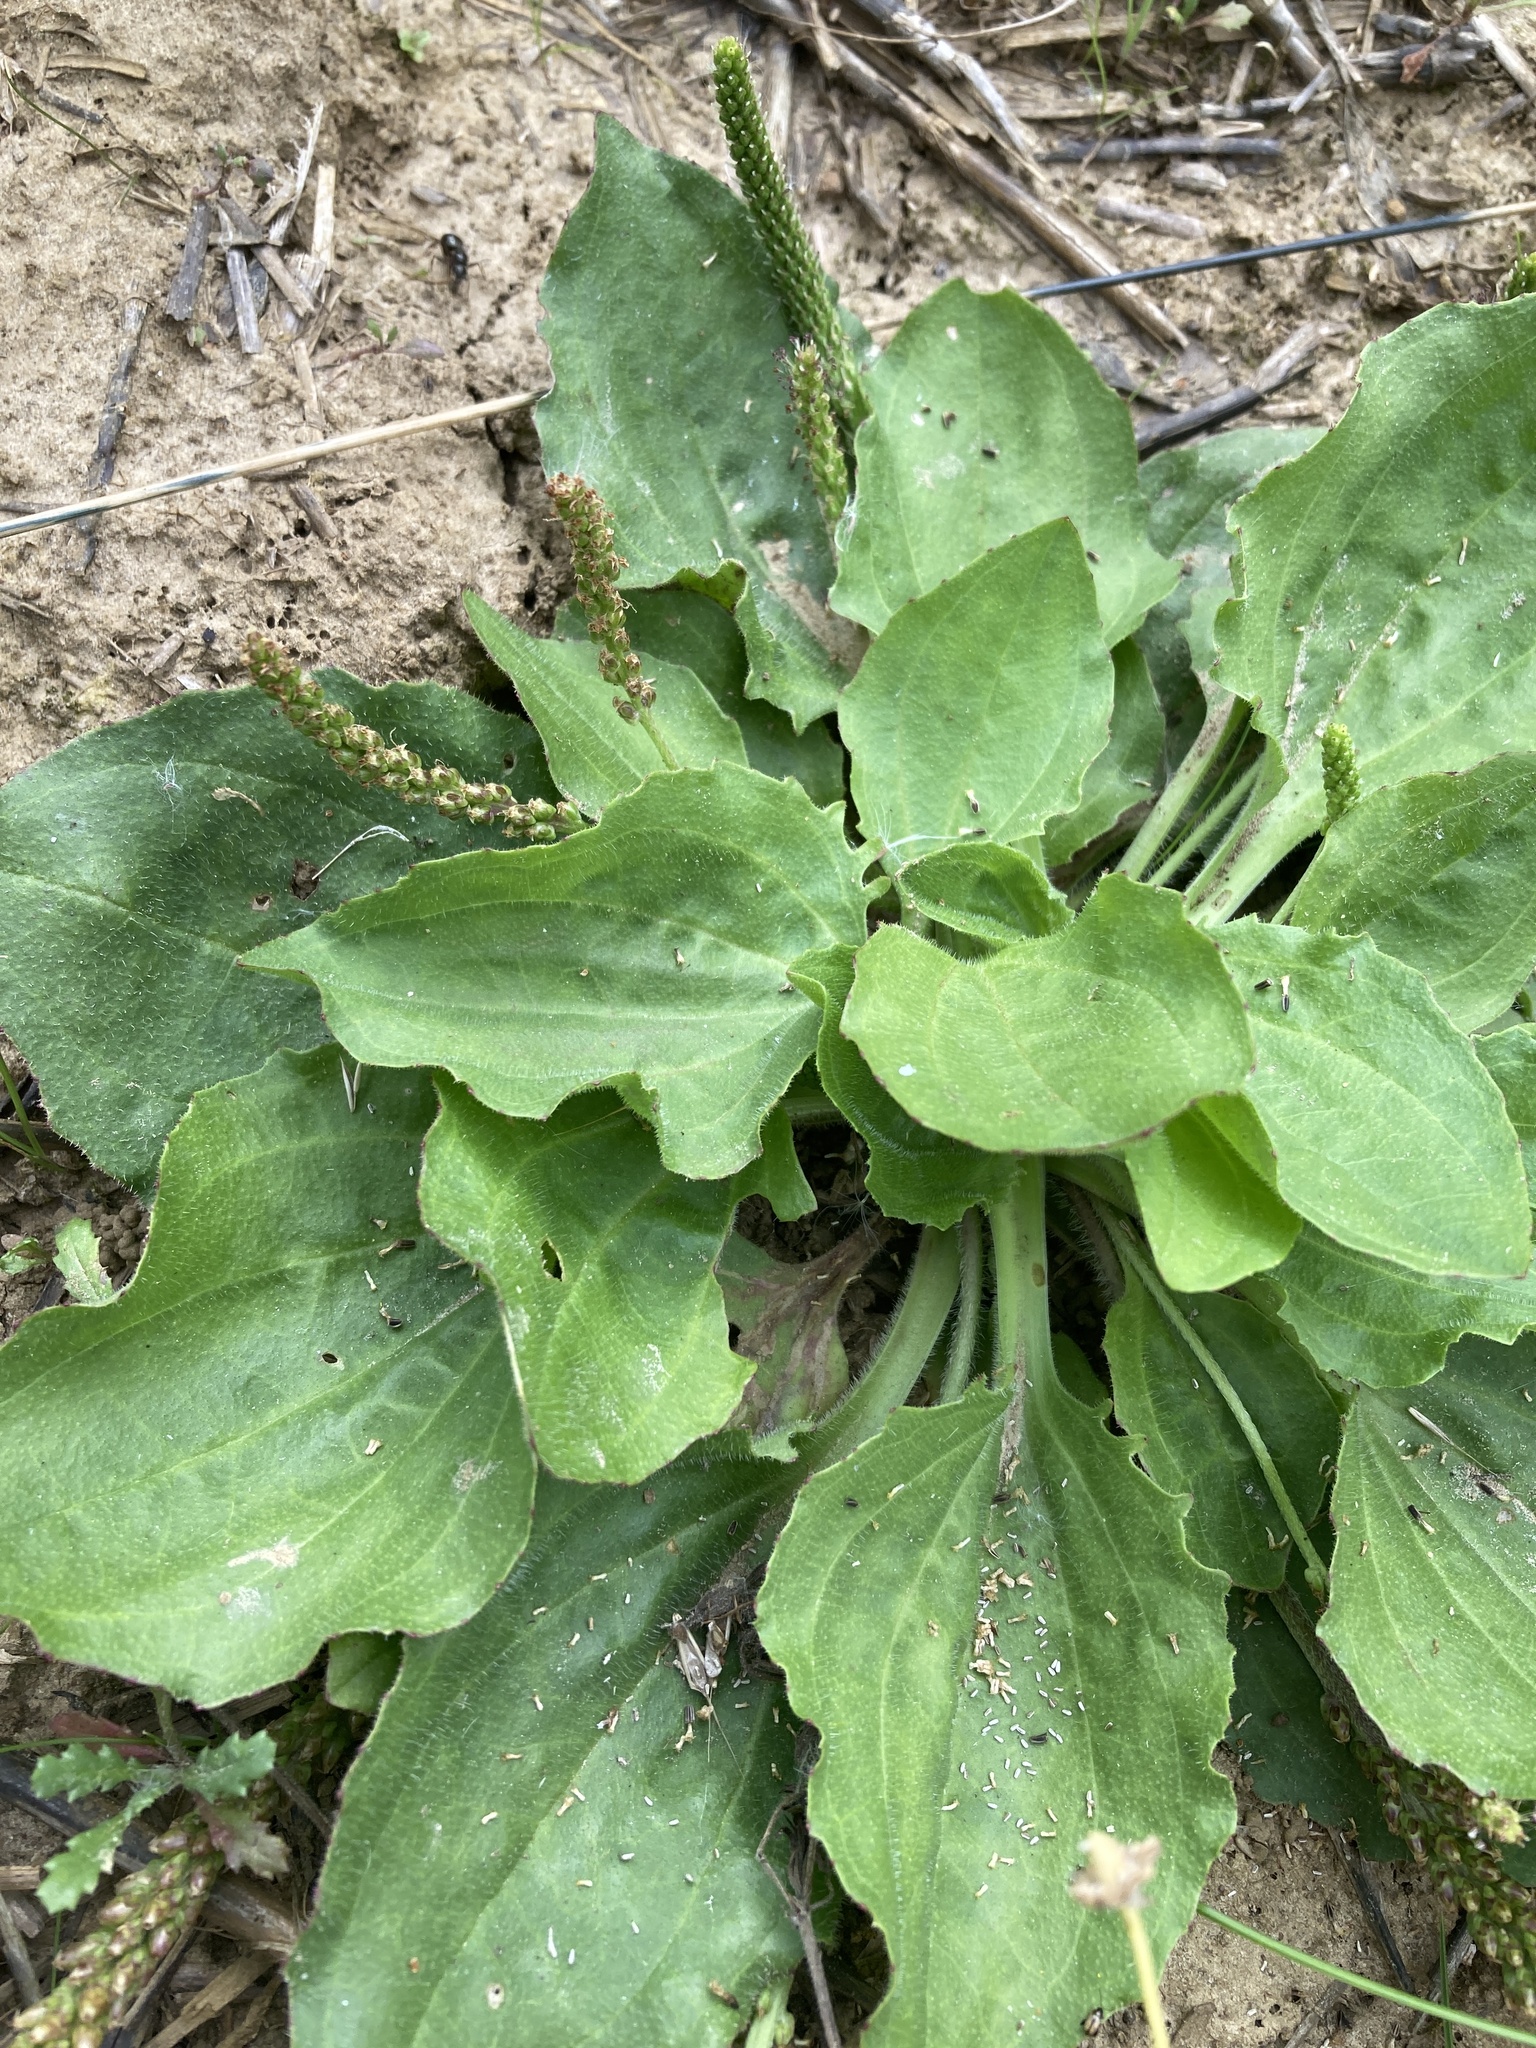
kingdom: Plantae
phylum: Tracheophyta
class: Magnoliopsida
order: Lamiales
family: Plantaginaceae
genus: Plantago
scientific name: Plantago major
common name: Common plantain
